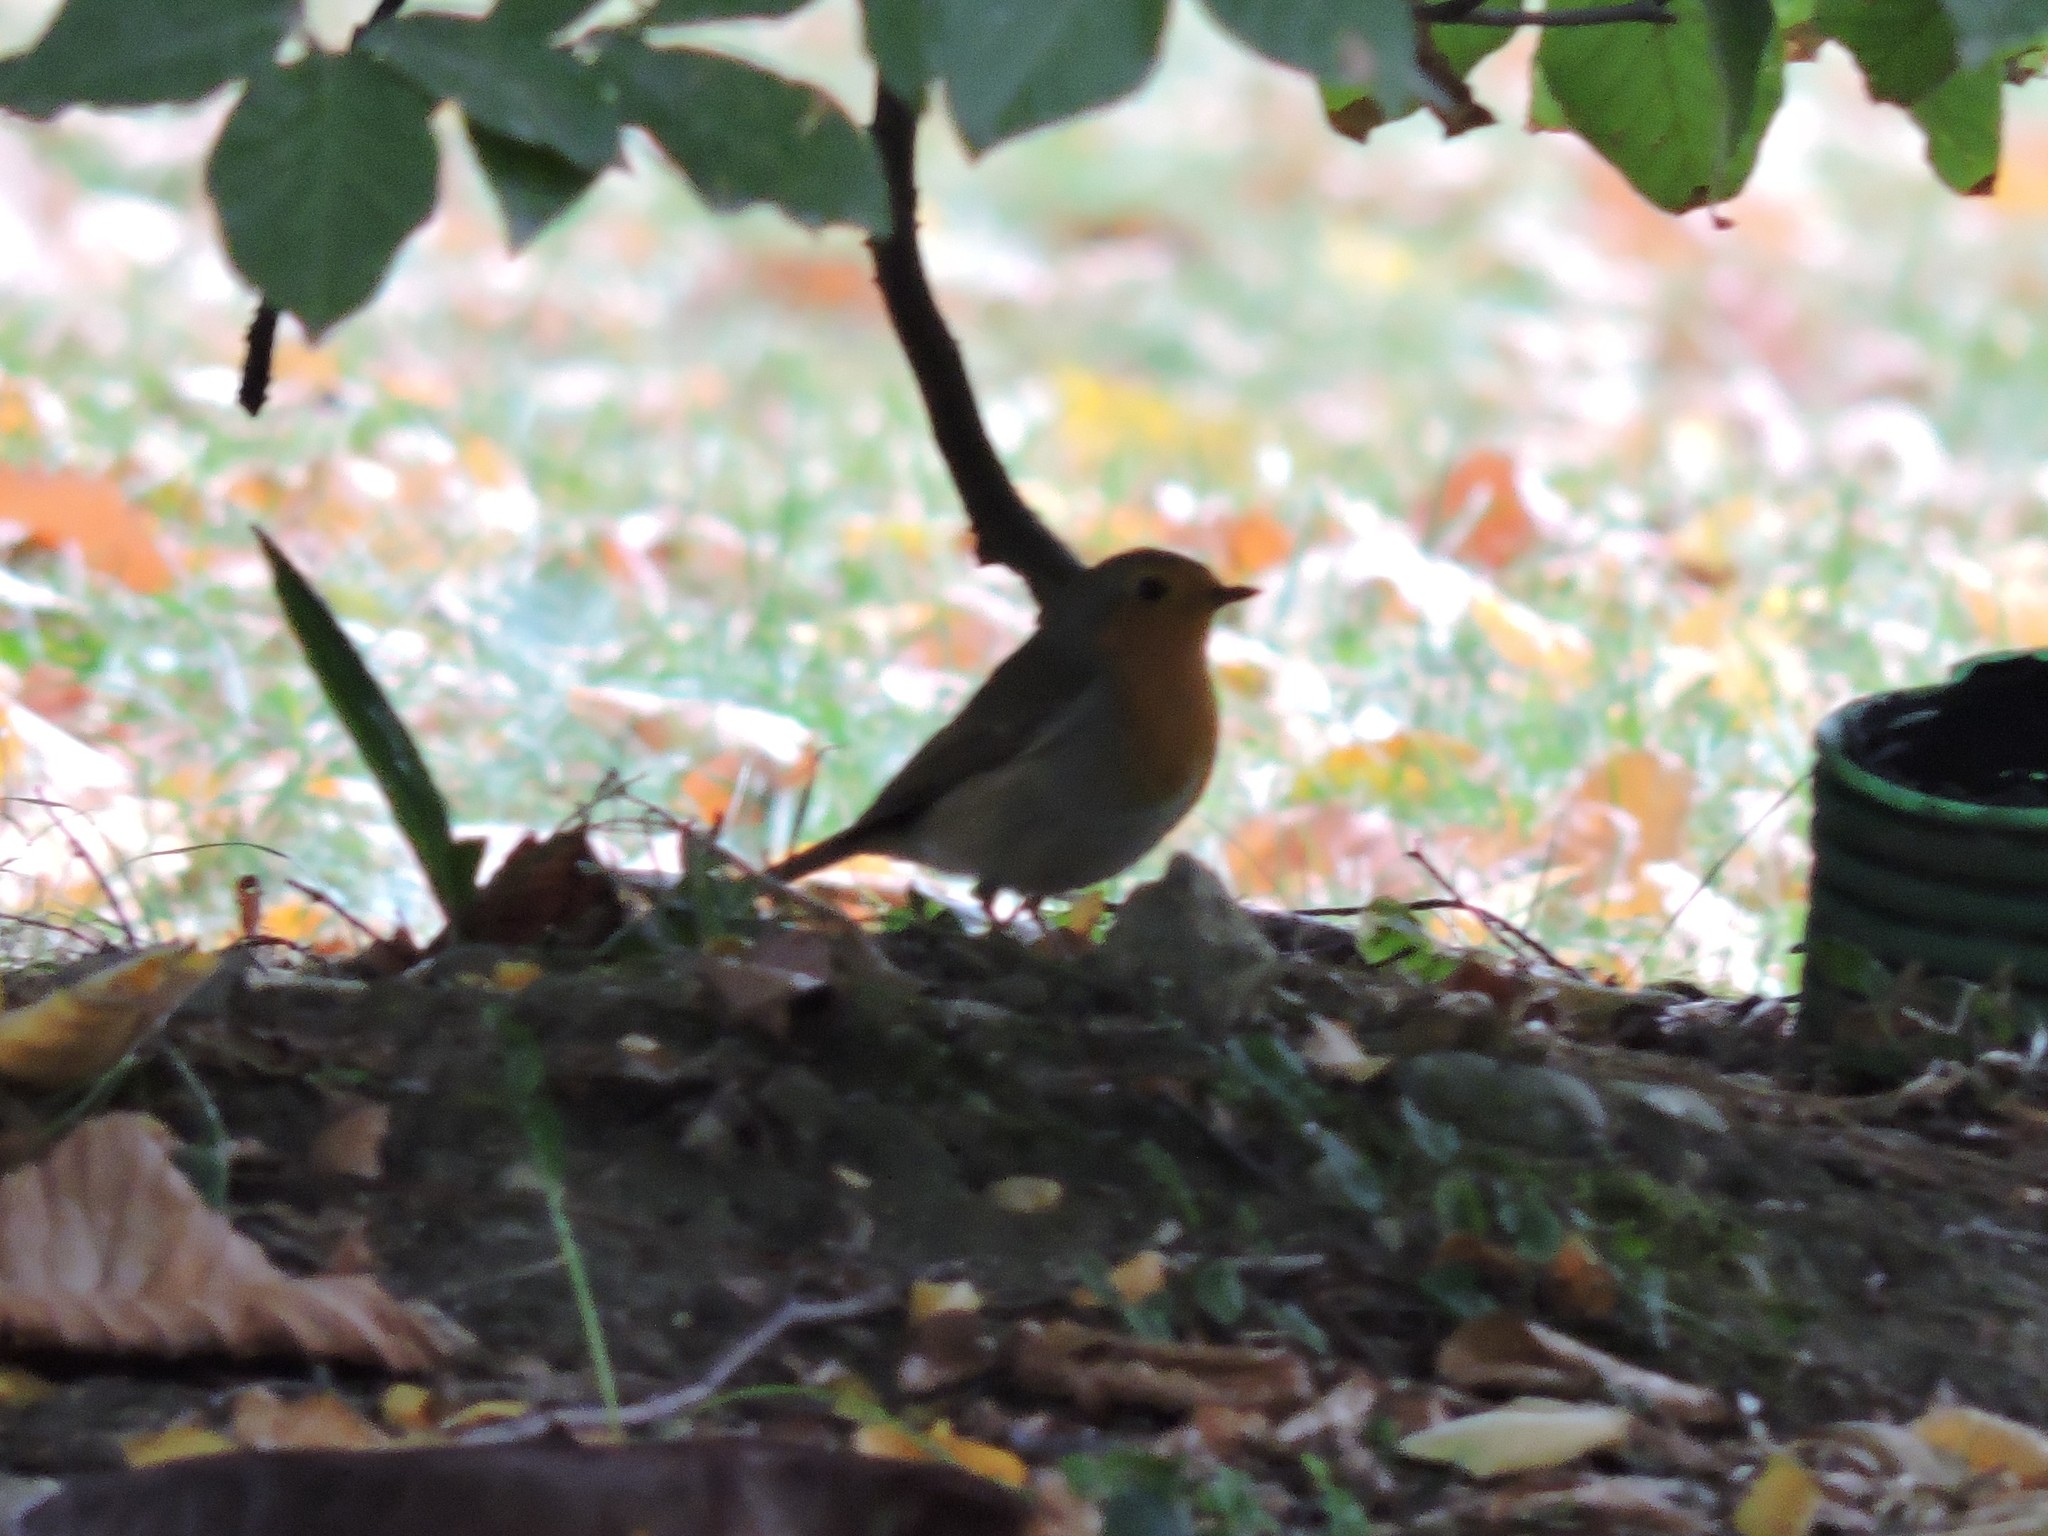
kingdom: Animalia
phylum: Chordata
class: Aves
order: Passeriformes
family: Muscicapidae
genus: Erithacus
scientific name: Erithacus rubecula
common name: European robin
